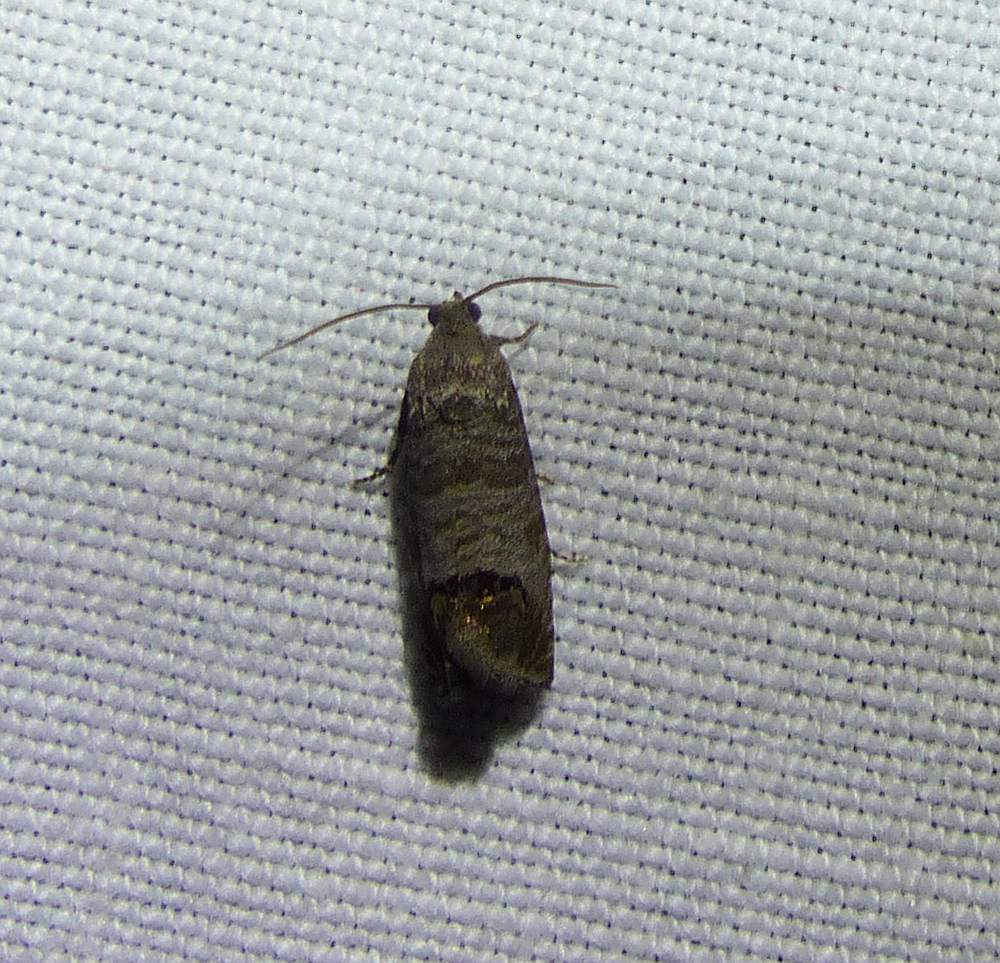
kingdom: Animalia
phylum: Arthropoda
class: Insecta
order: Lepidoptera
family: Tortricidae
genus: Cydia
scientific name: Cydia pomonella
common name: Codling moth
